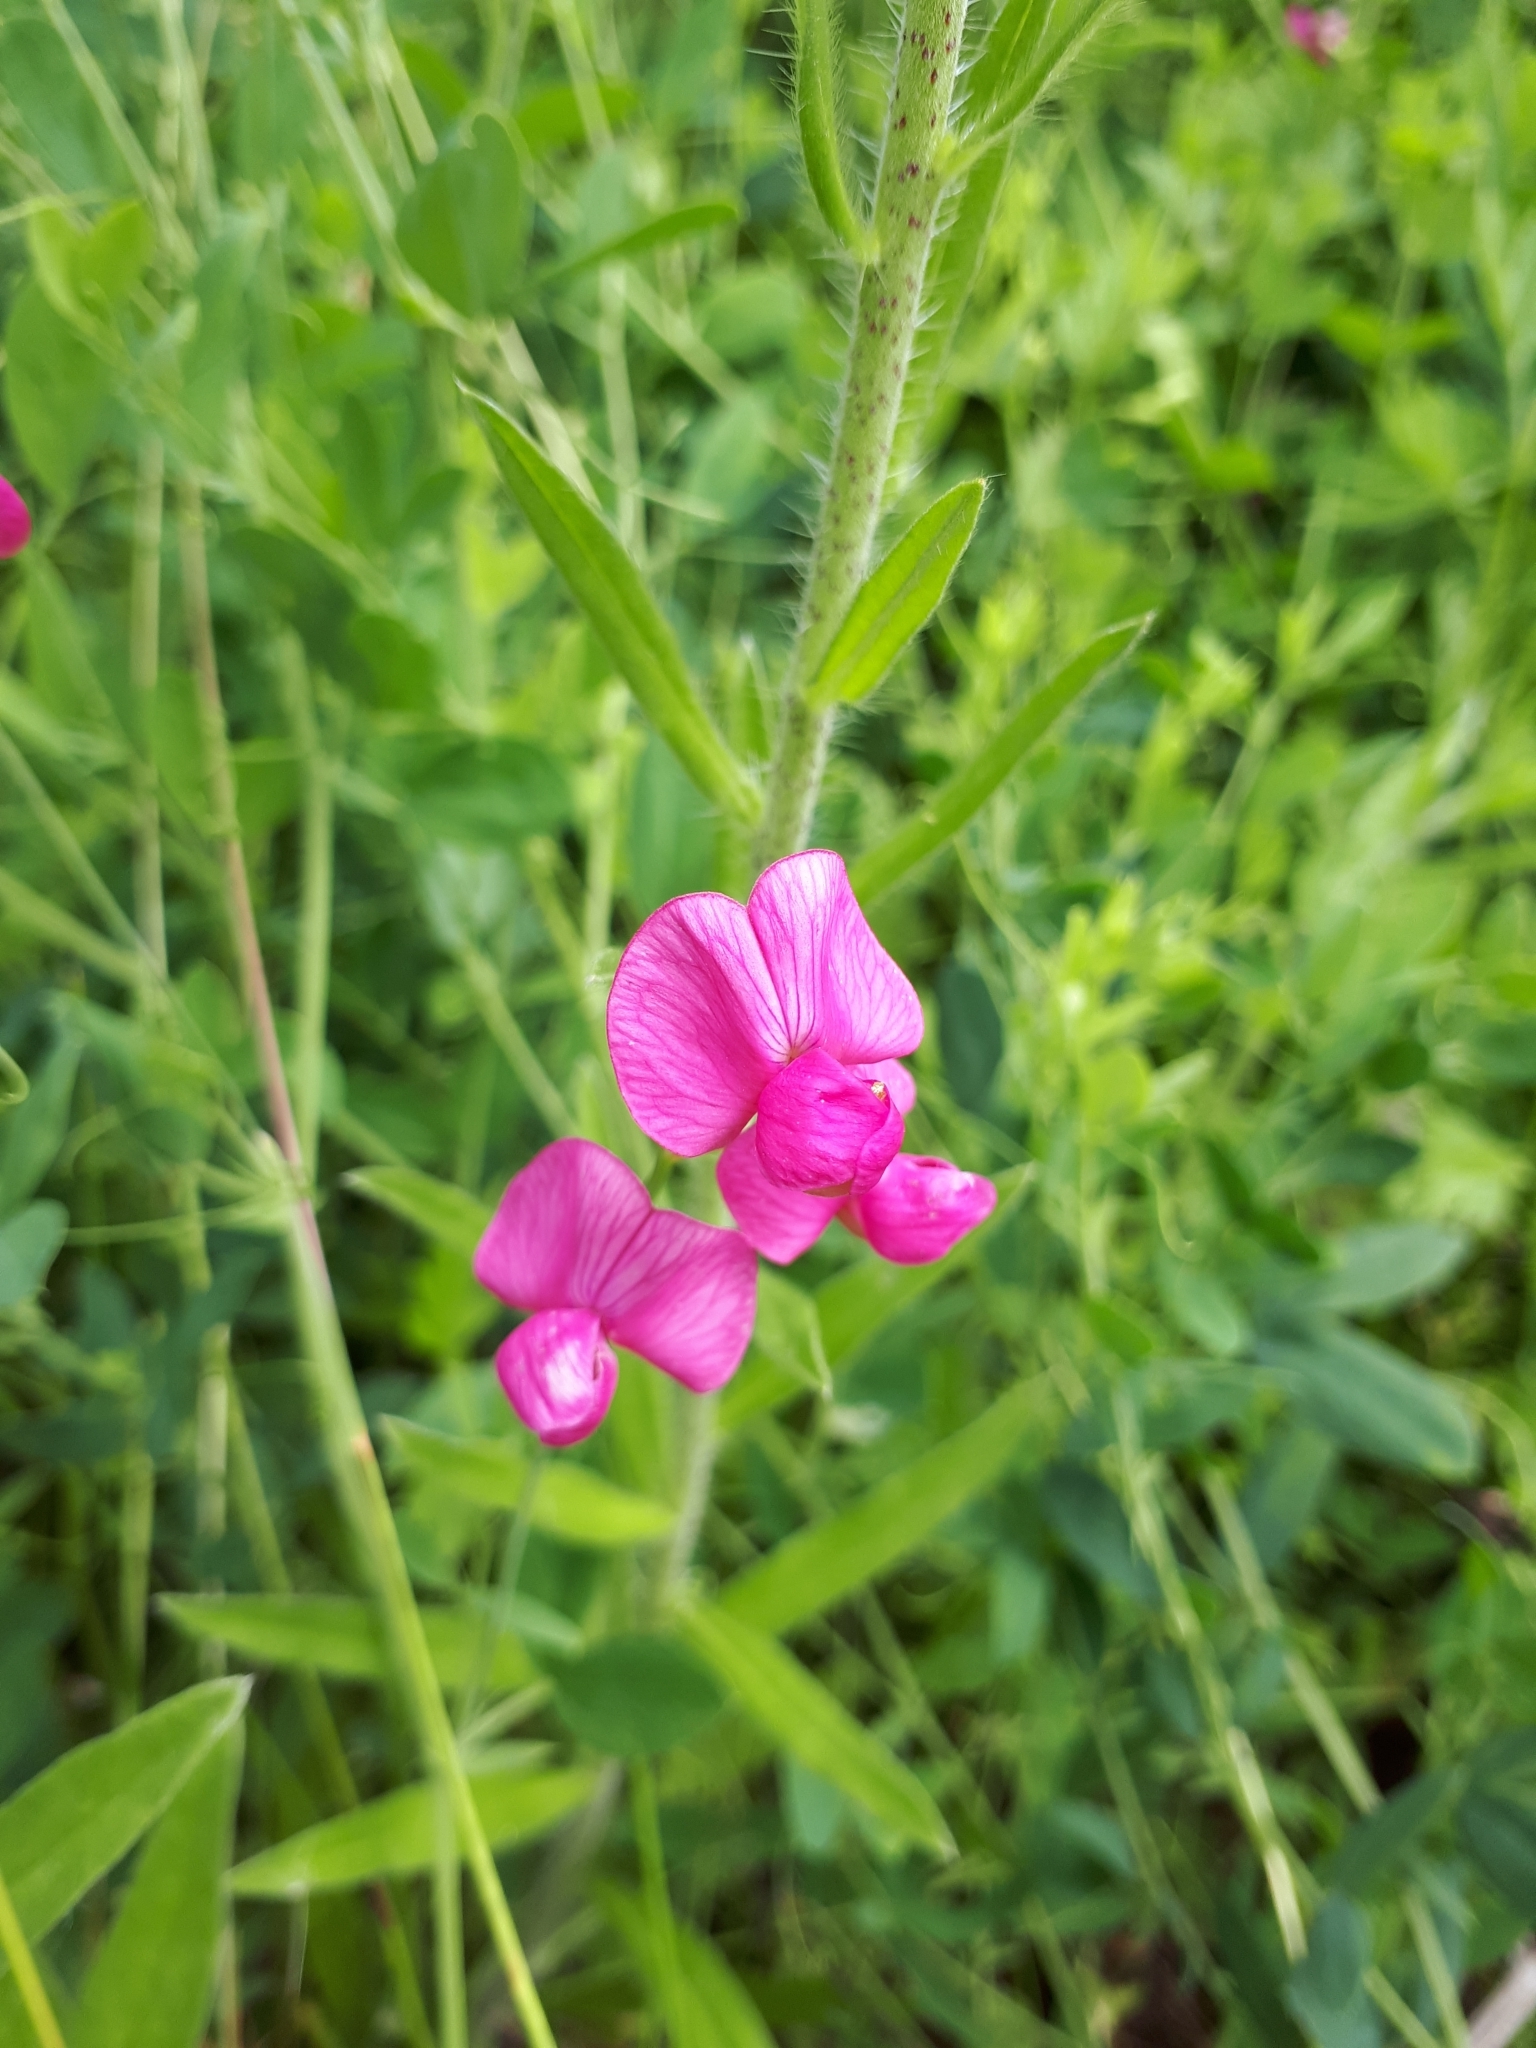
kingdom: Plantae
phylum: Tracheophyta
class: Magnoliopsida
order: Fabales
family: Fabaceae
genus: Lathyrus
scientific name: Lathyrus tuberosus
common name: Tuberous pea
